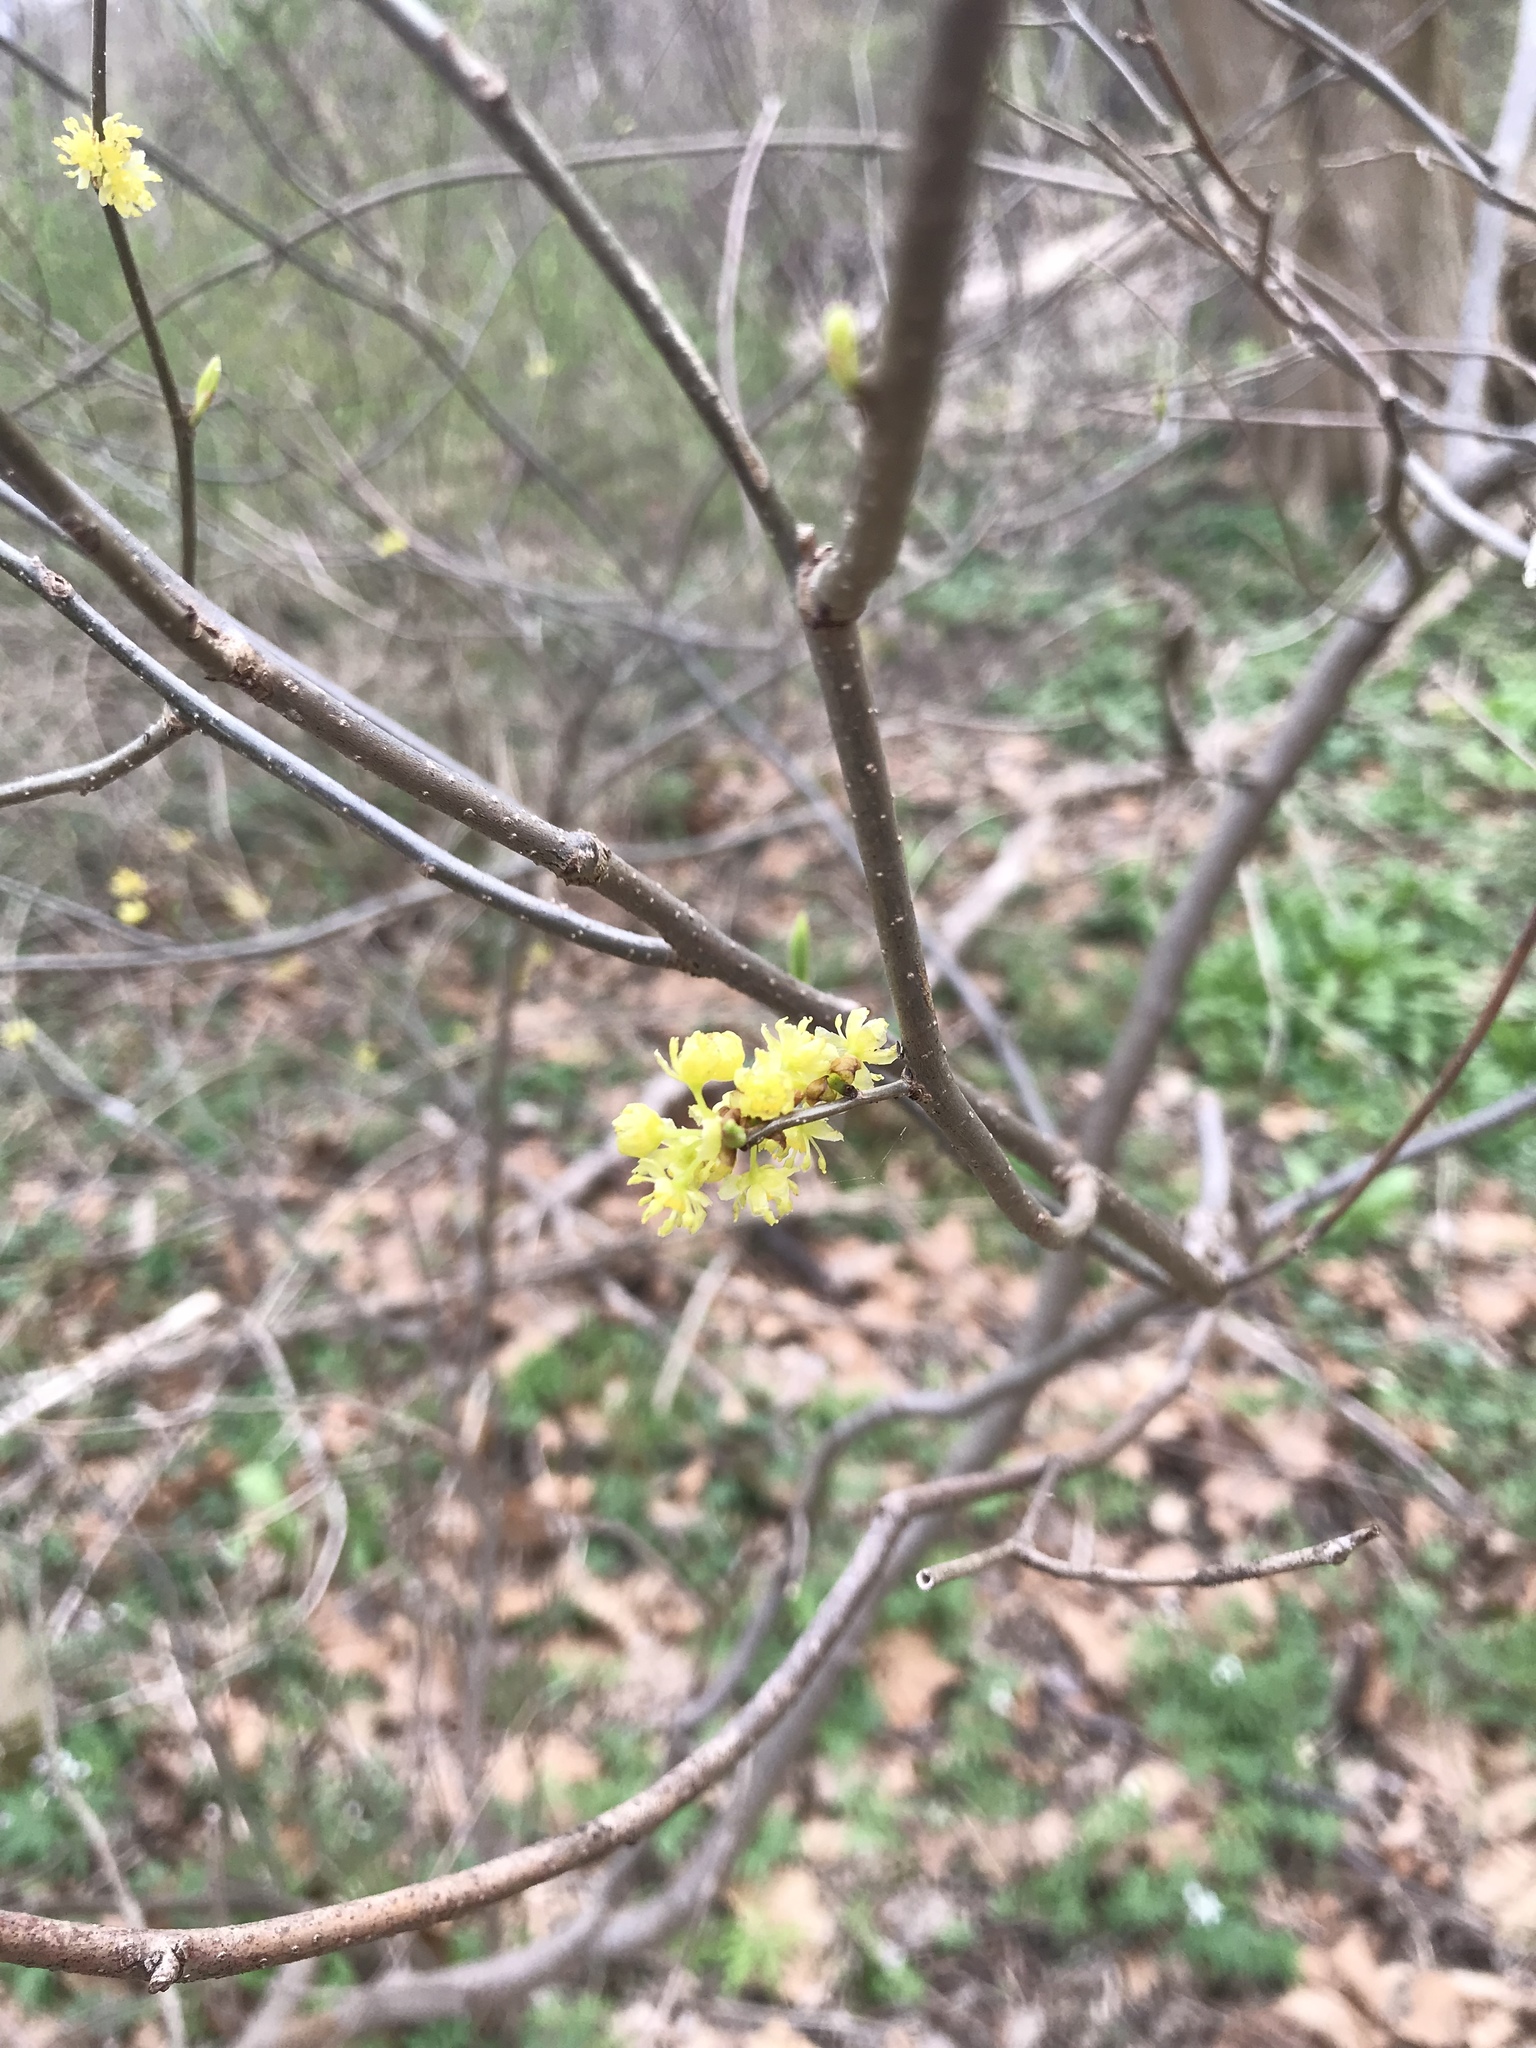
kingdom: Plantae
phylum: Tracheophyta
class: Magnoliopsida
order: Laurales
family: Lauraceae
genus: Lindera
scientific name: Lindera benzoin
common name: Spicebush
